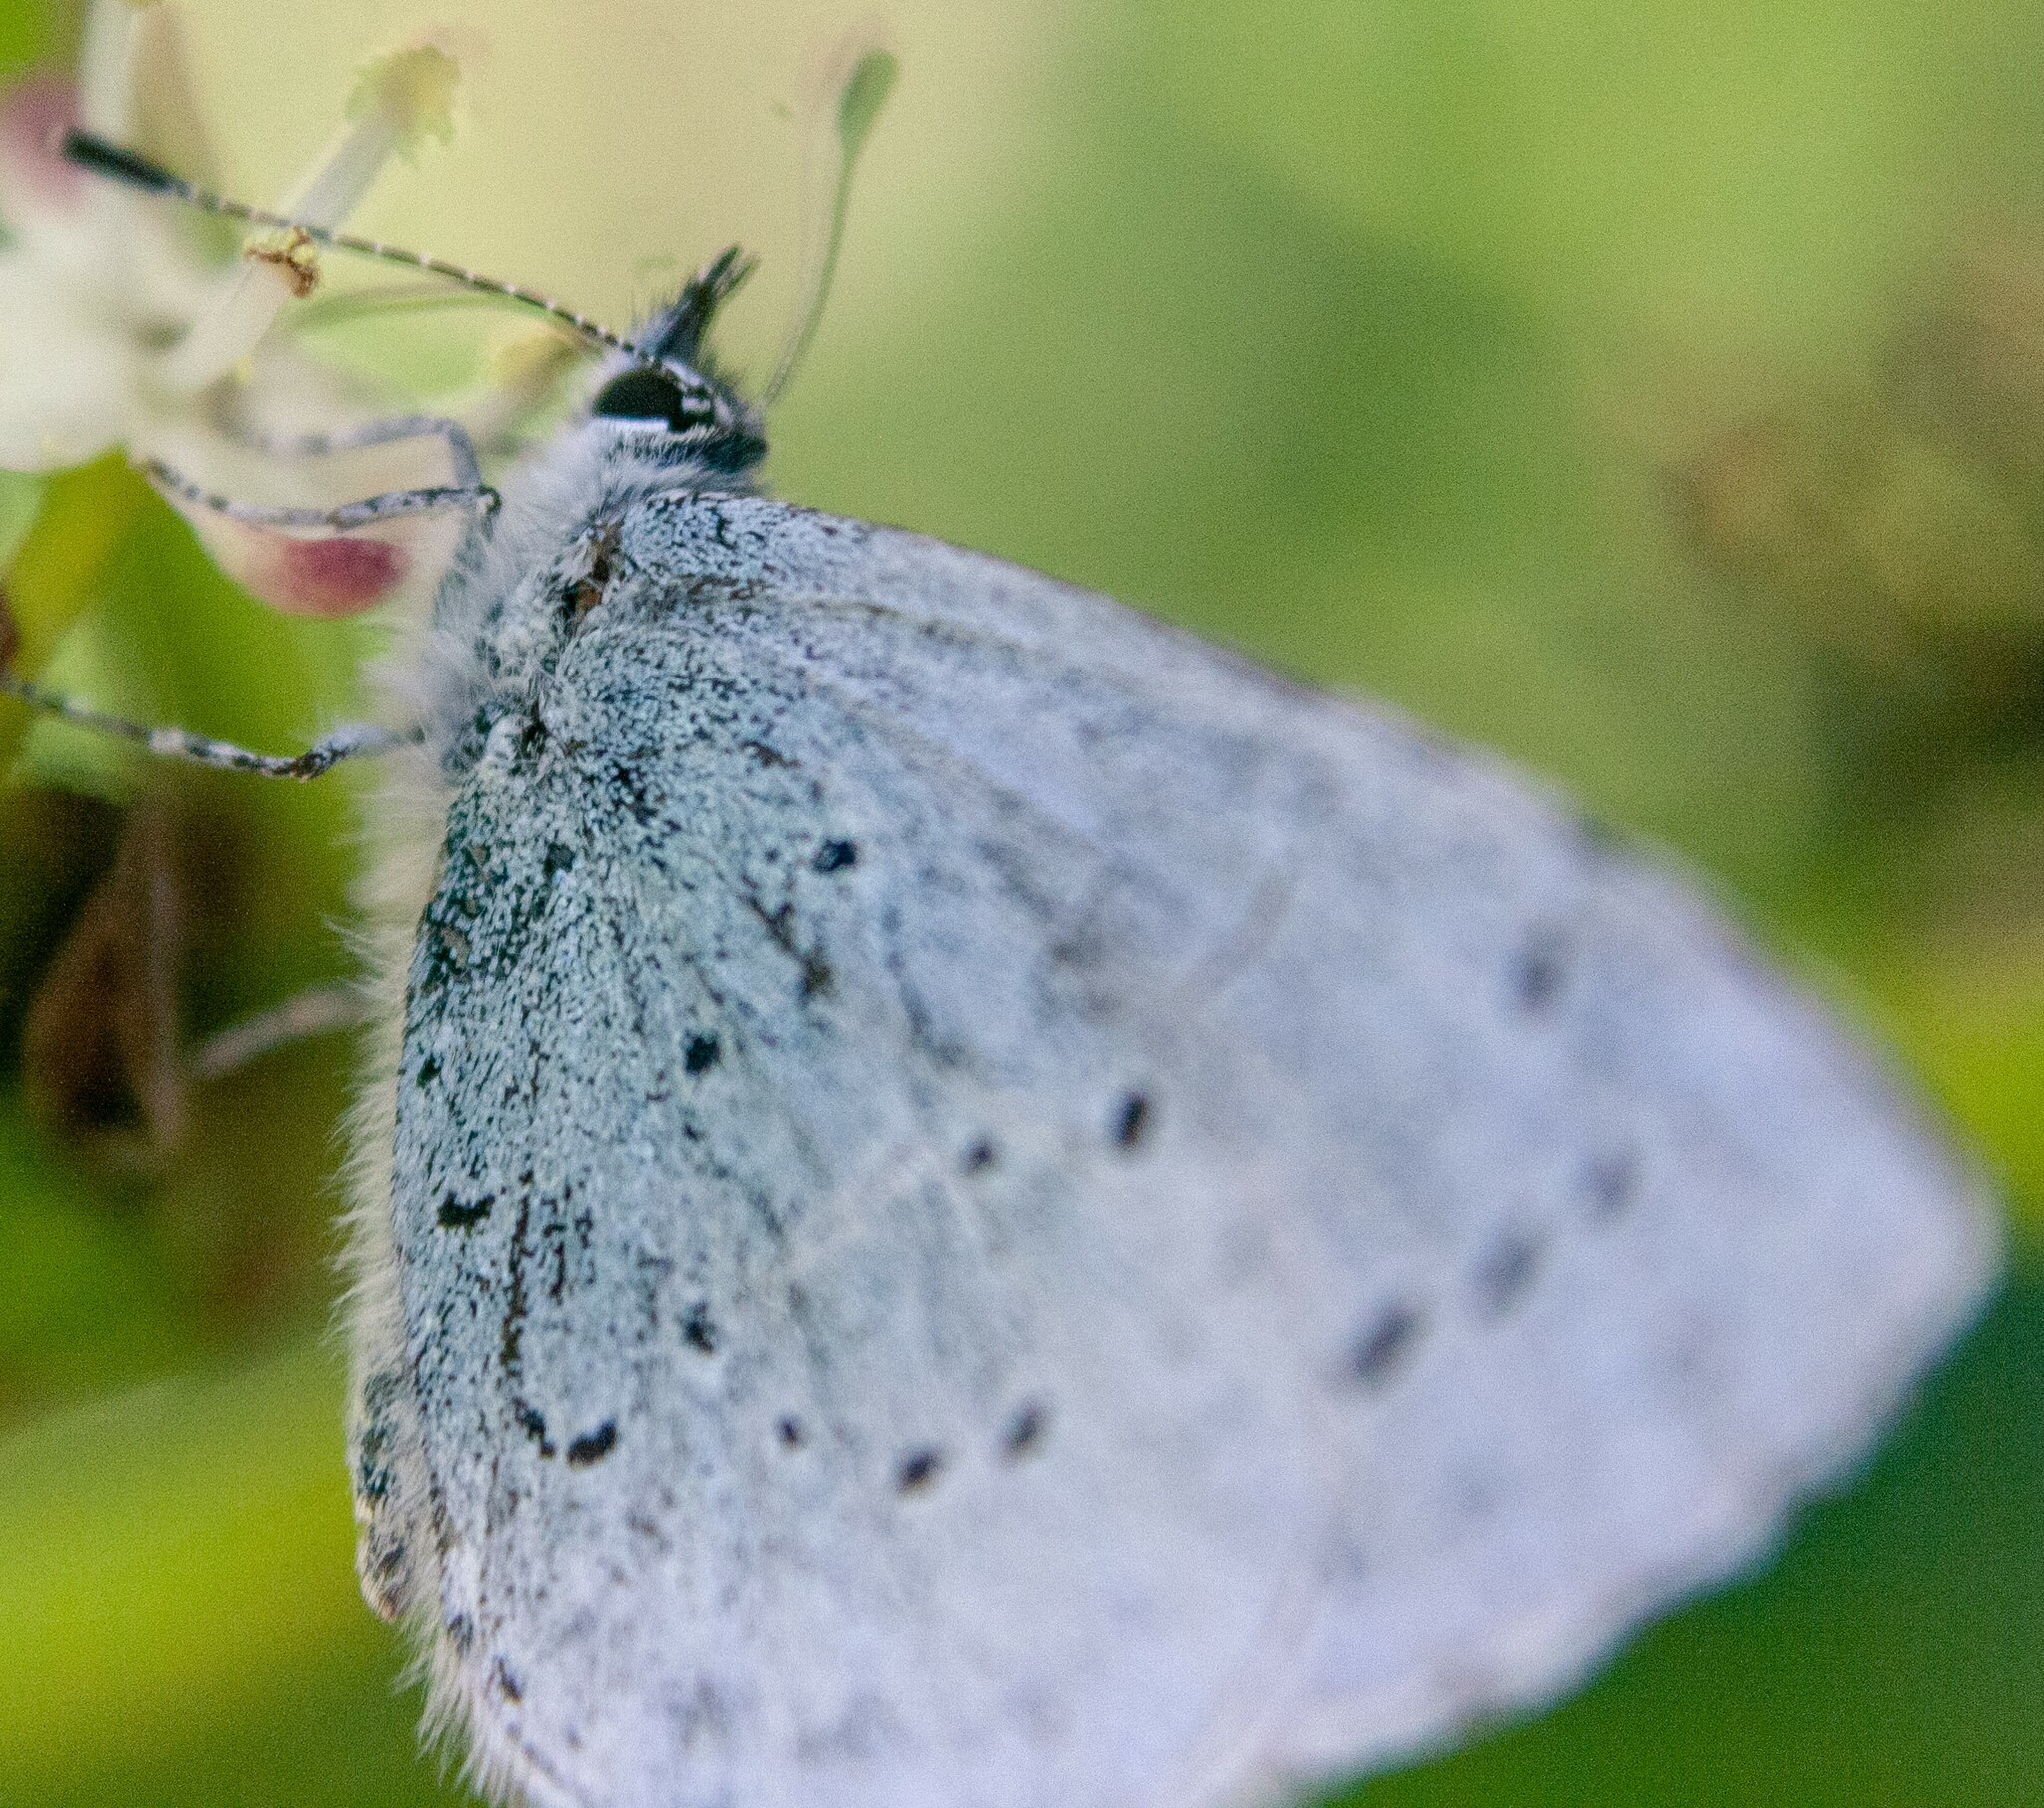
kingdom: Animalia
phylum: Arthropoda
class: Insecta
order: Lepidoptera
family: Lycaenidae
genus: Celastrina
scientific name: Celastrina argiolus
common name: Holly blue
